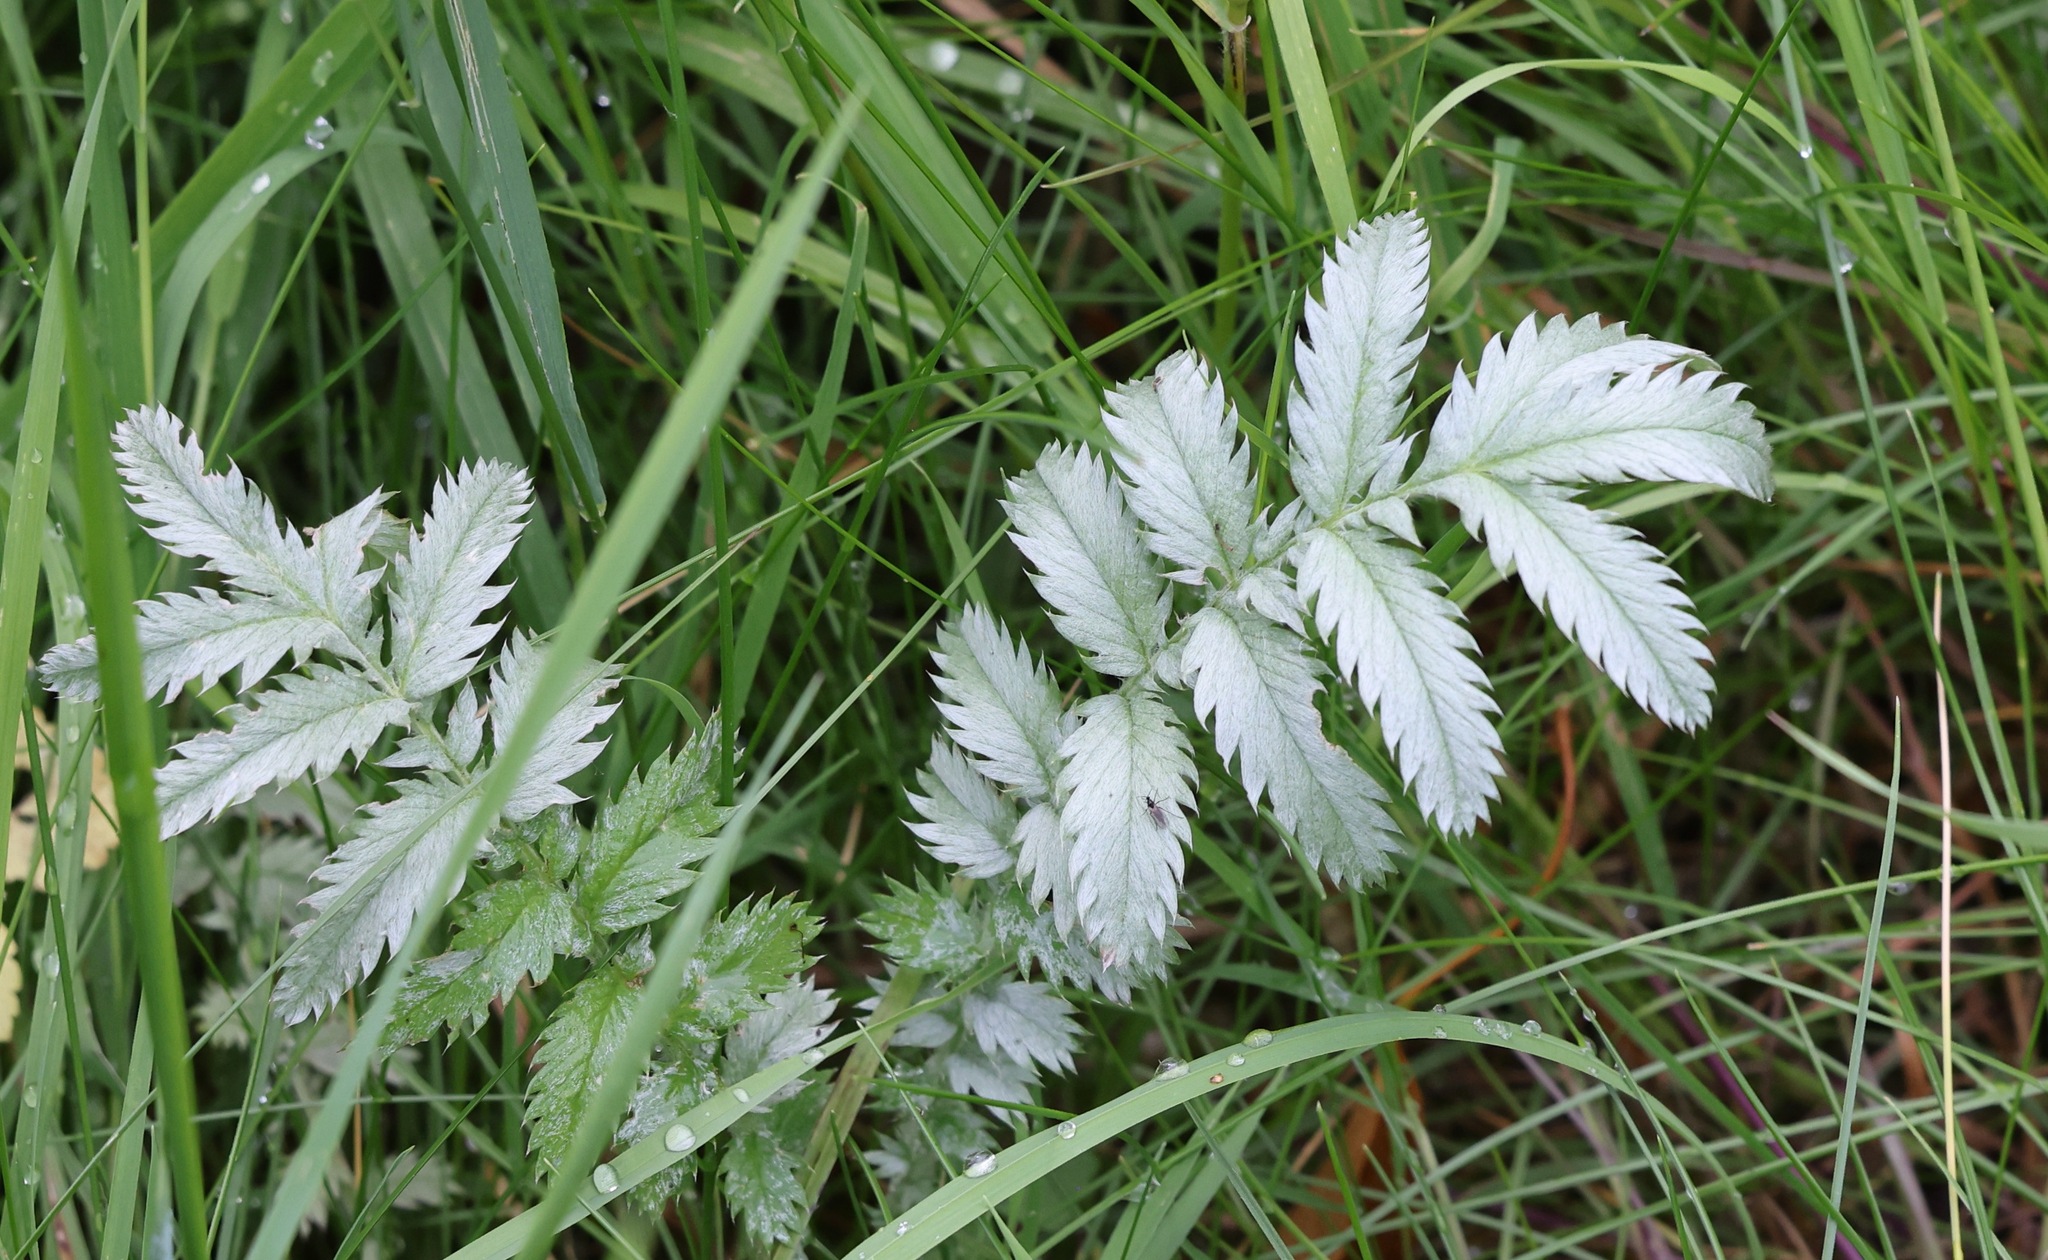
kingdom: Plantae
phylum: Tracheophyta
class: Magnoliopsida
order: Rosales
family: Rosaceae
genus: Argentina
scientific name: Argentina anserina
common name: Common silverweed
